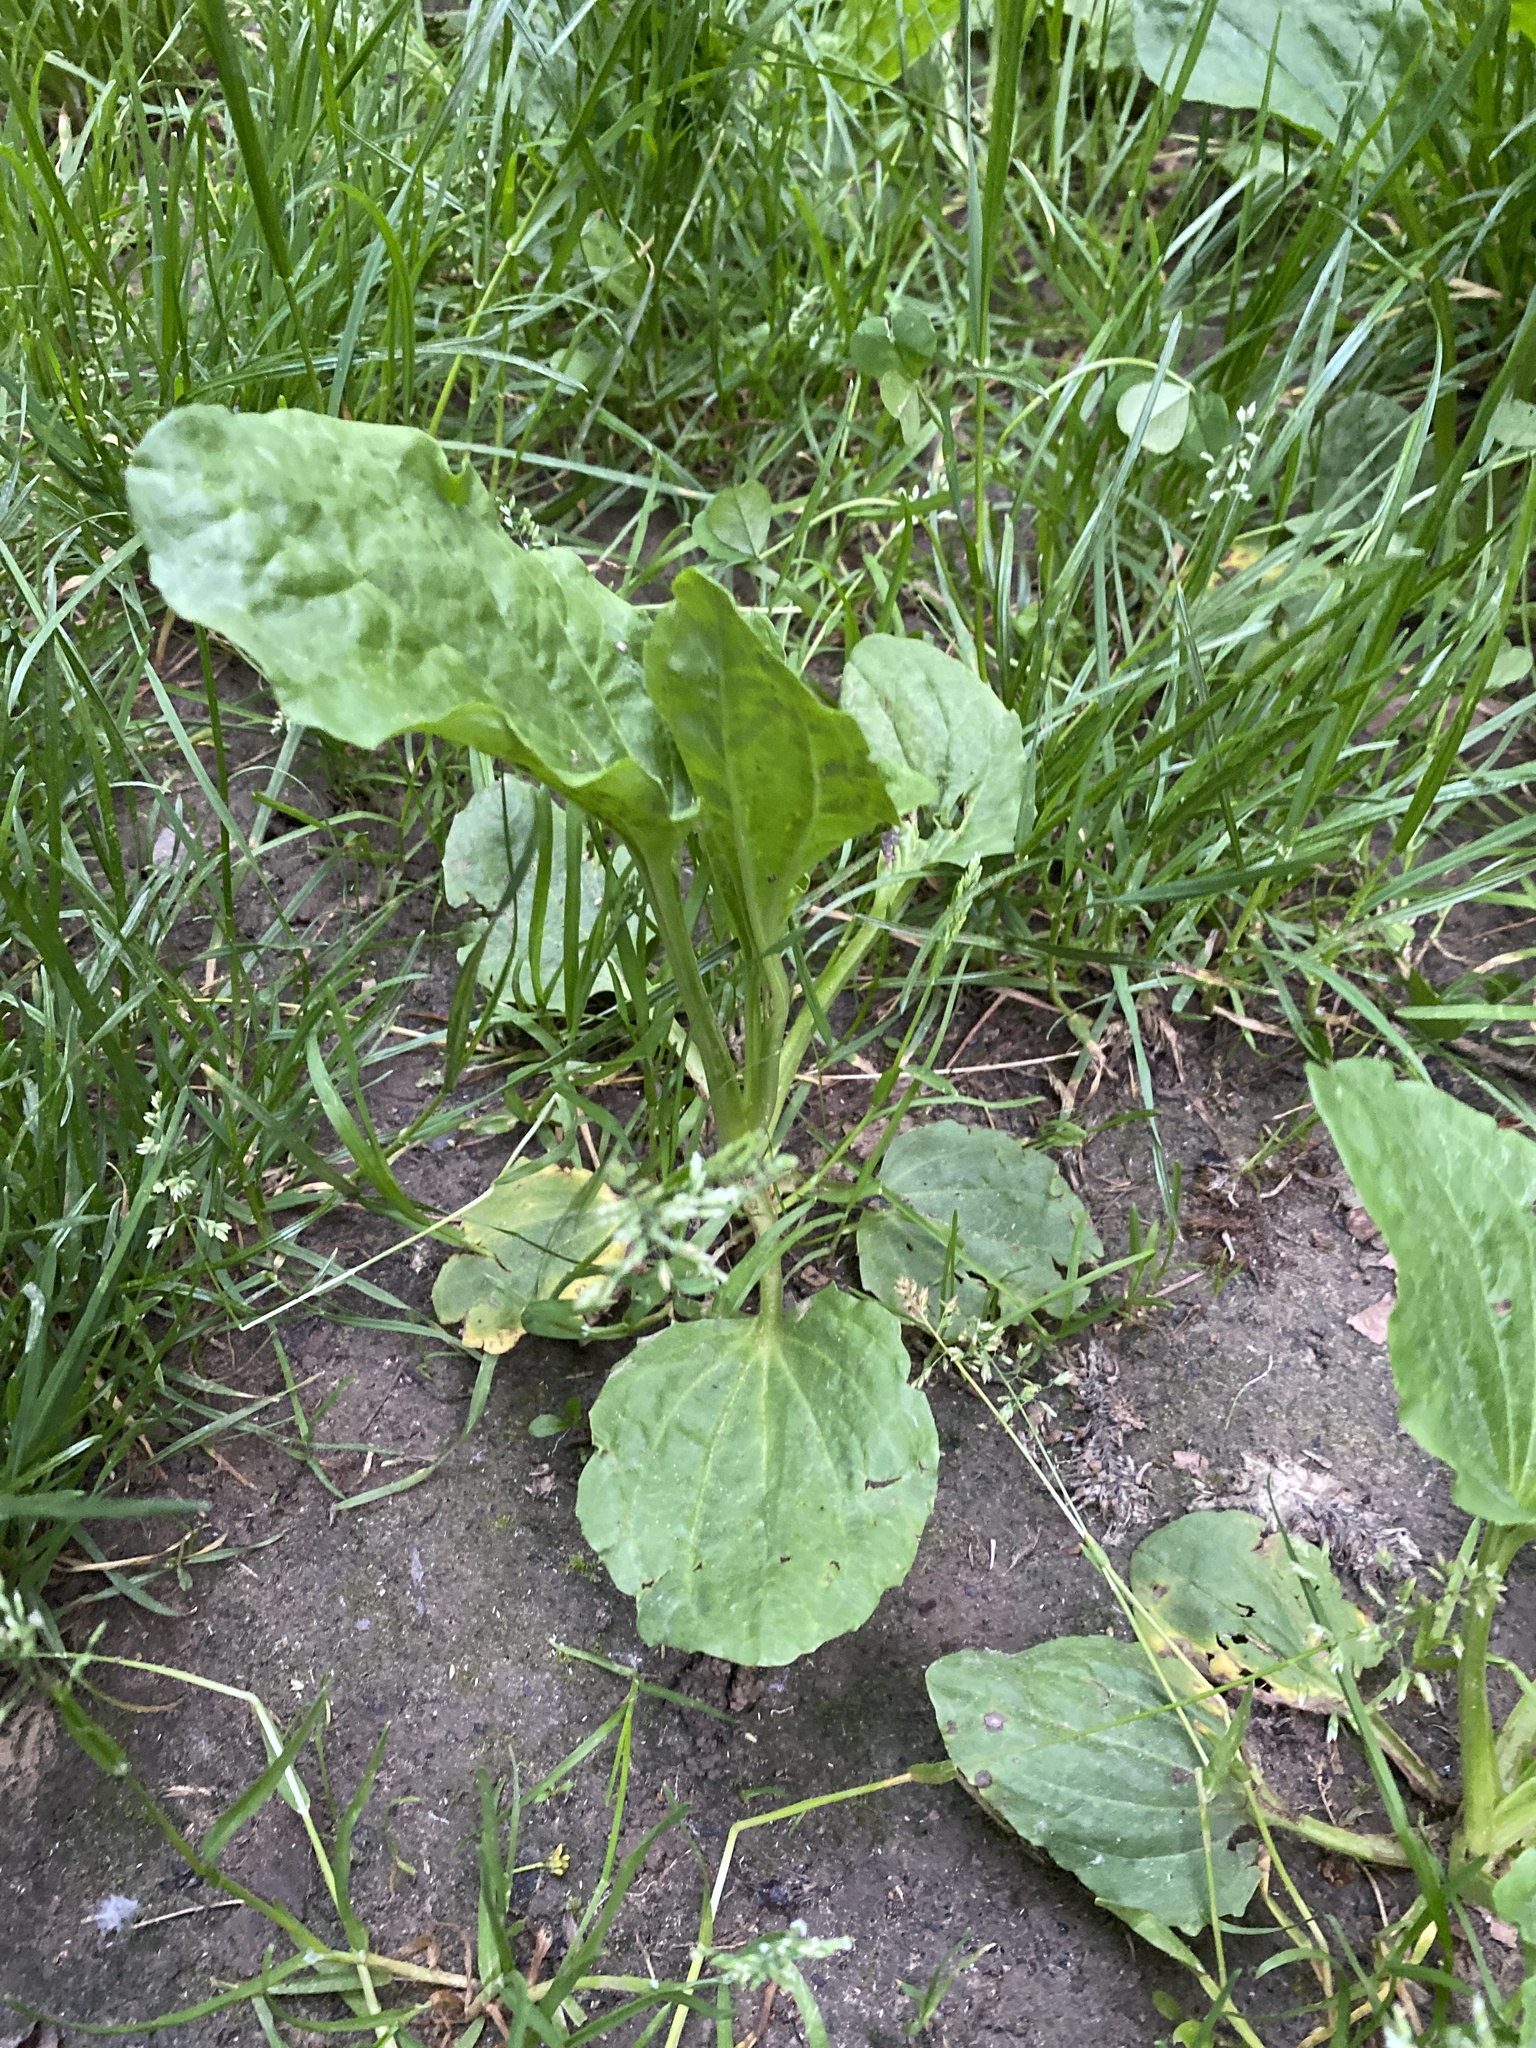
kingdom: Plantae
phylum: Tracheophyta
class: Magnoliopsida
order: Lamiales
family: Plantaginaceae
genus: Plantago
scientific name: Plantago major
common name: Common plantain
